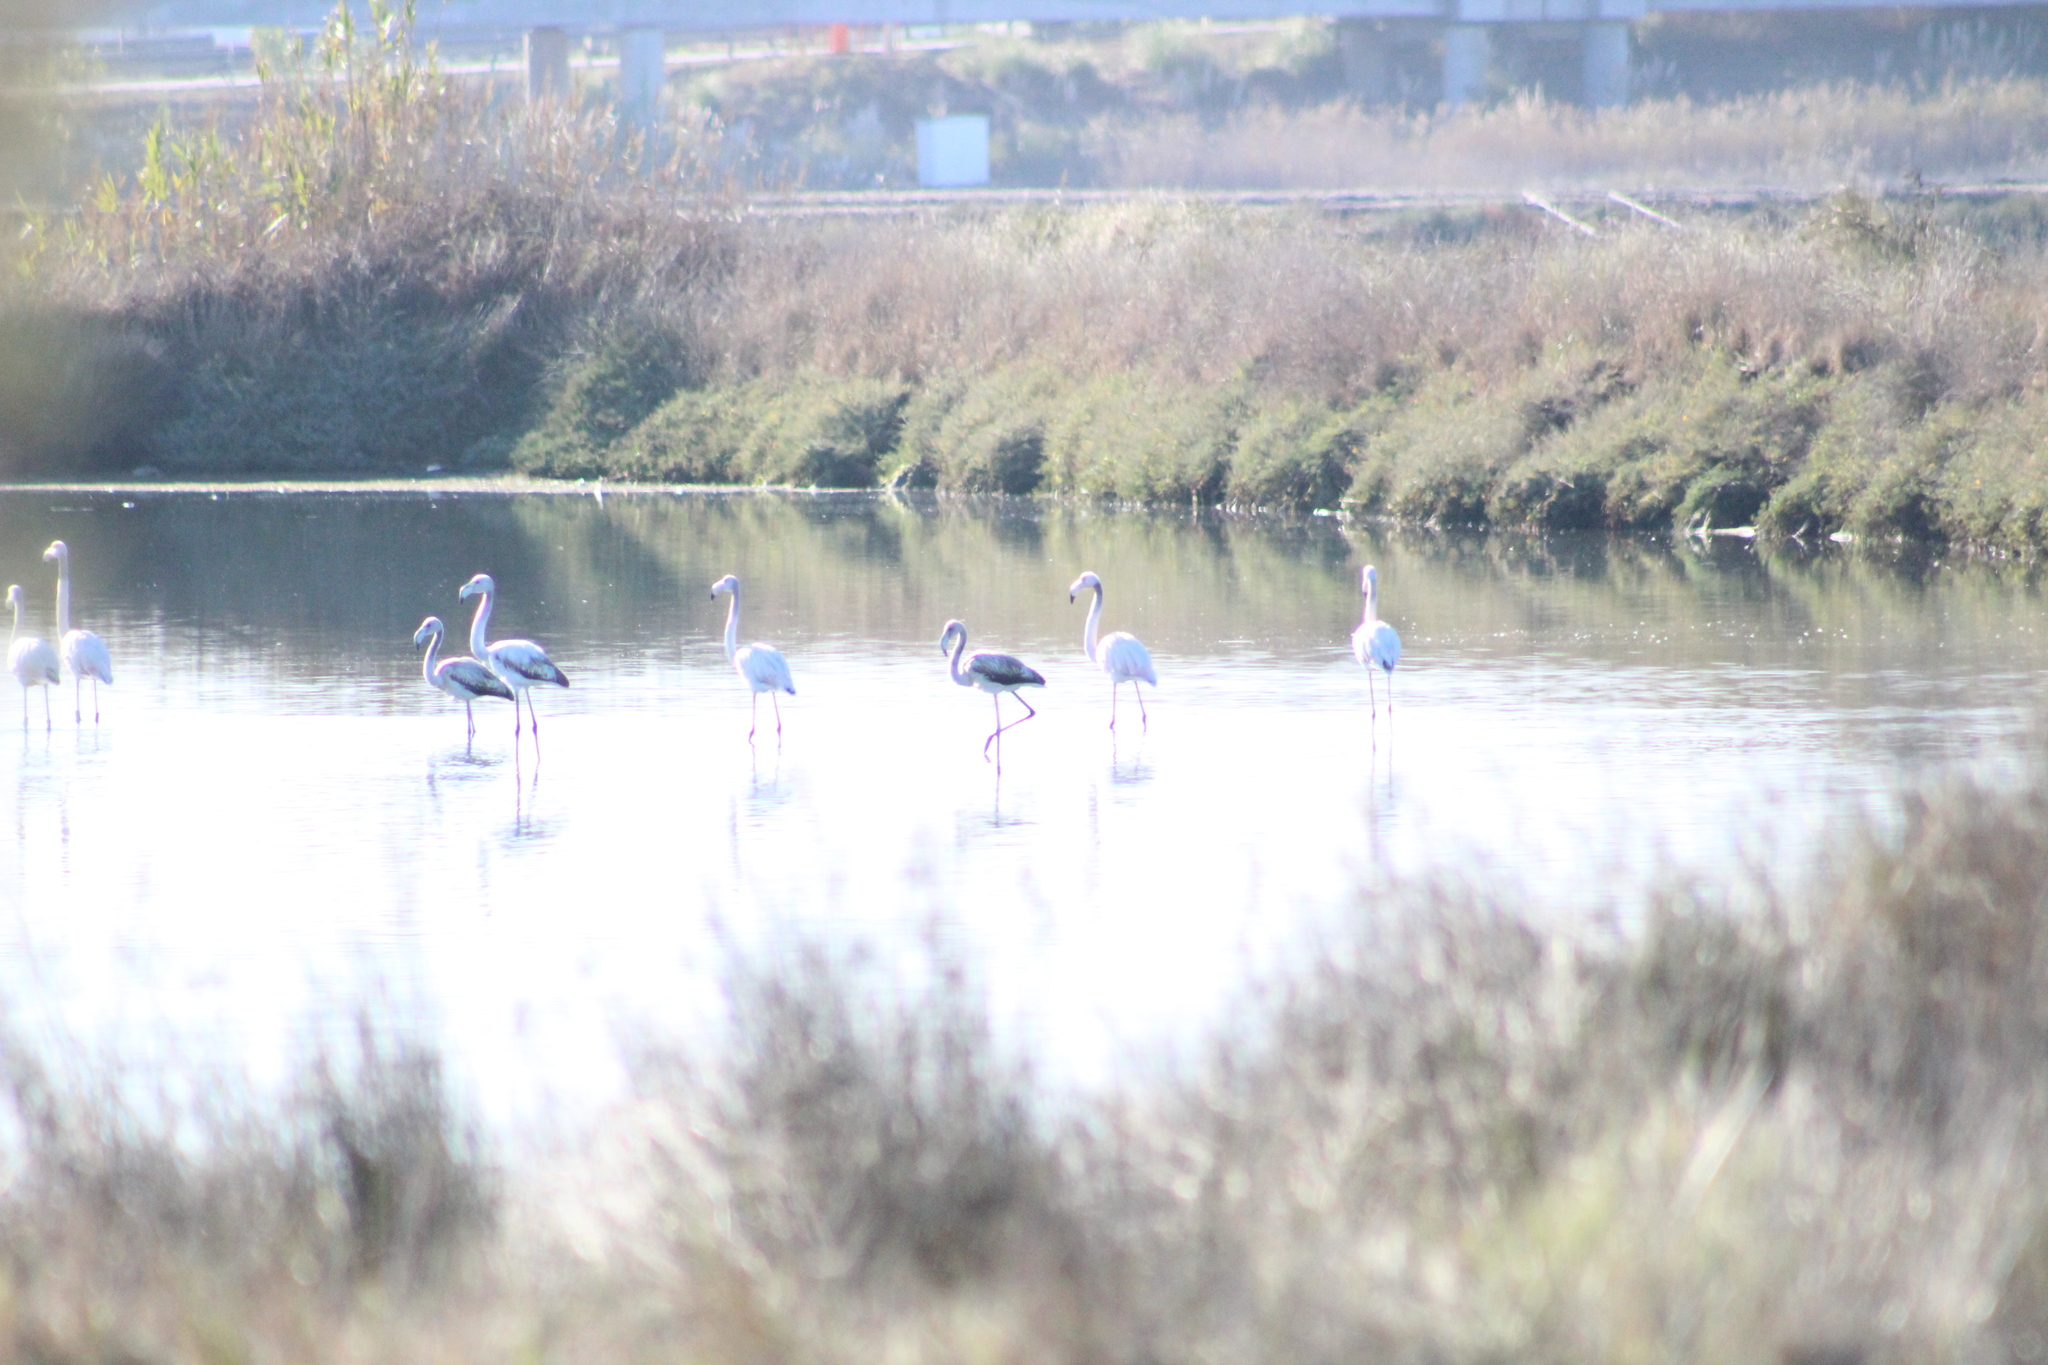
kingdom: Animalia
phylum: Chordata
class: Aves
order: Phoenicopteriformes
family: Phoenicopteridae
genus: Phoenicopterus
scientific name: Phoenicopterus roseus
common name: Greater flamingo
